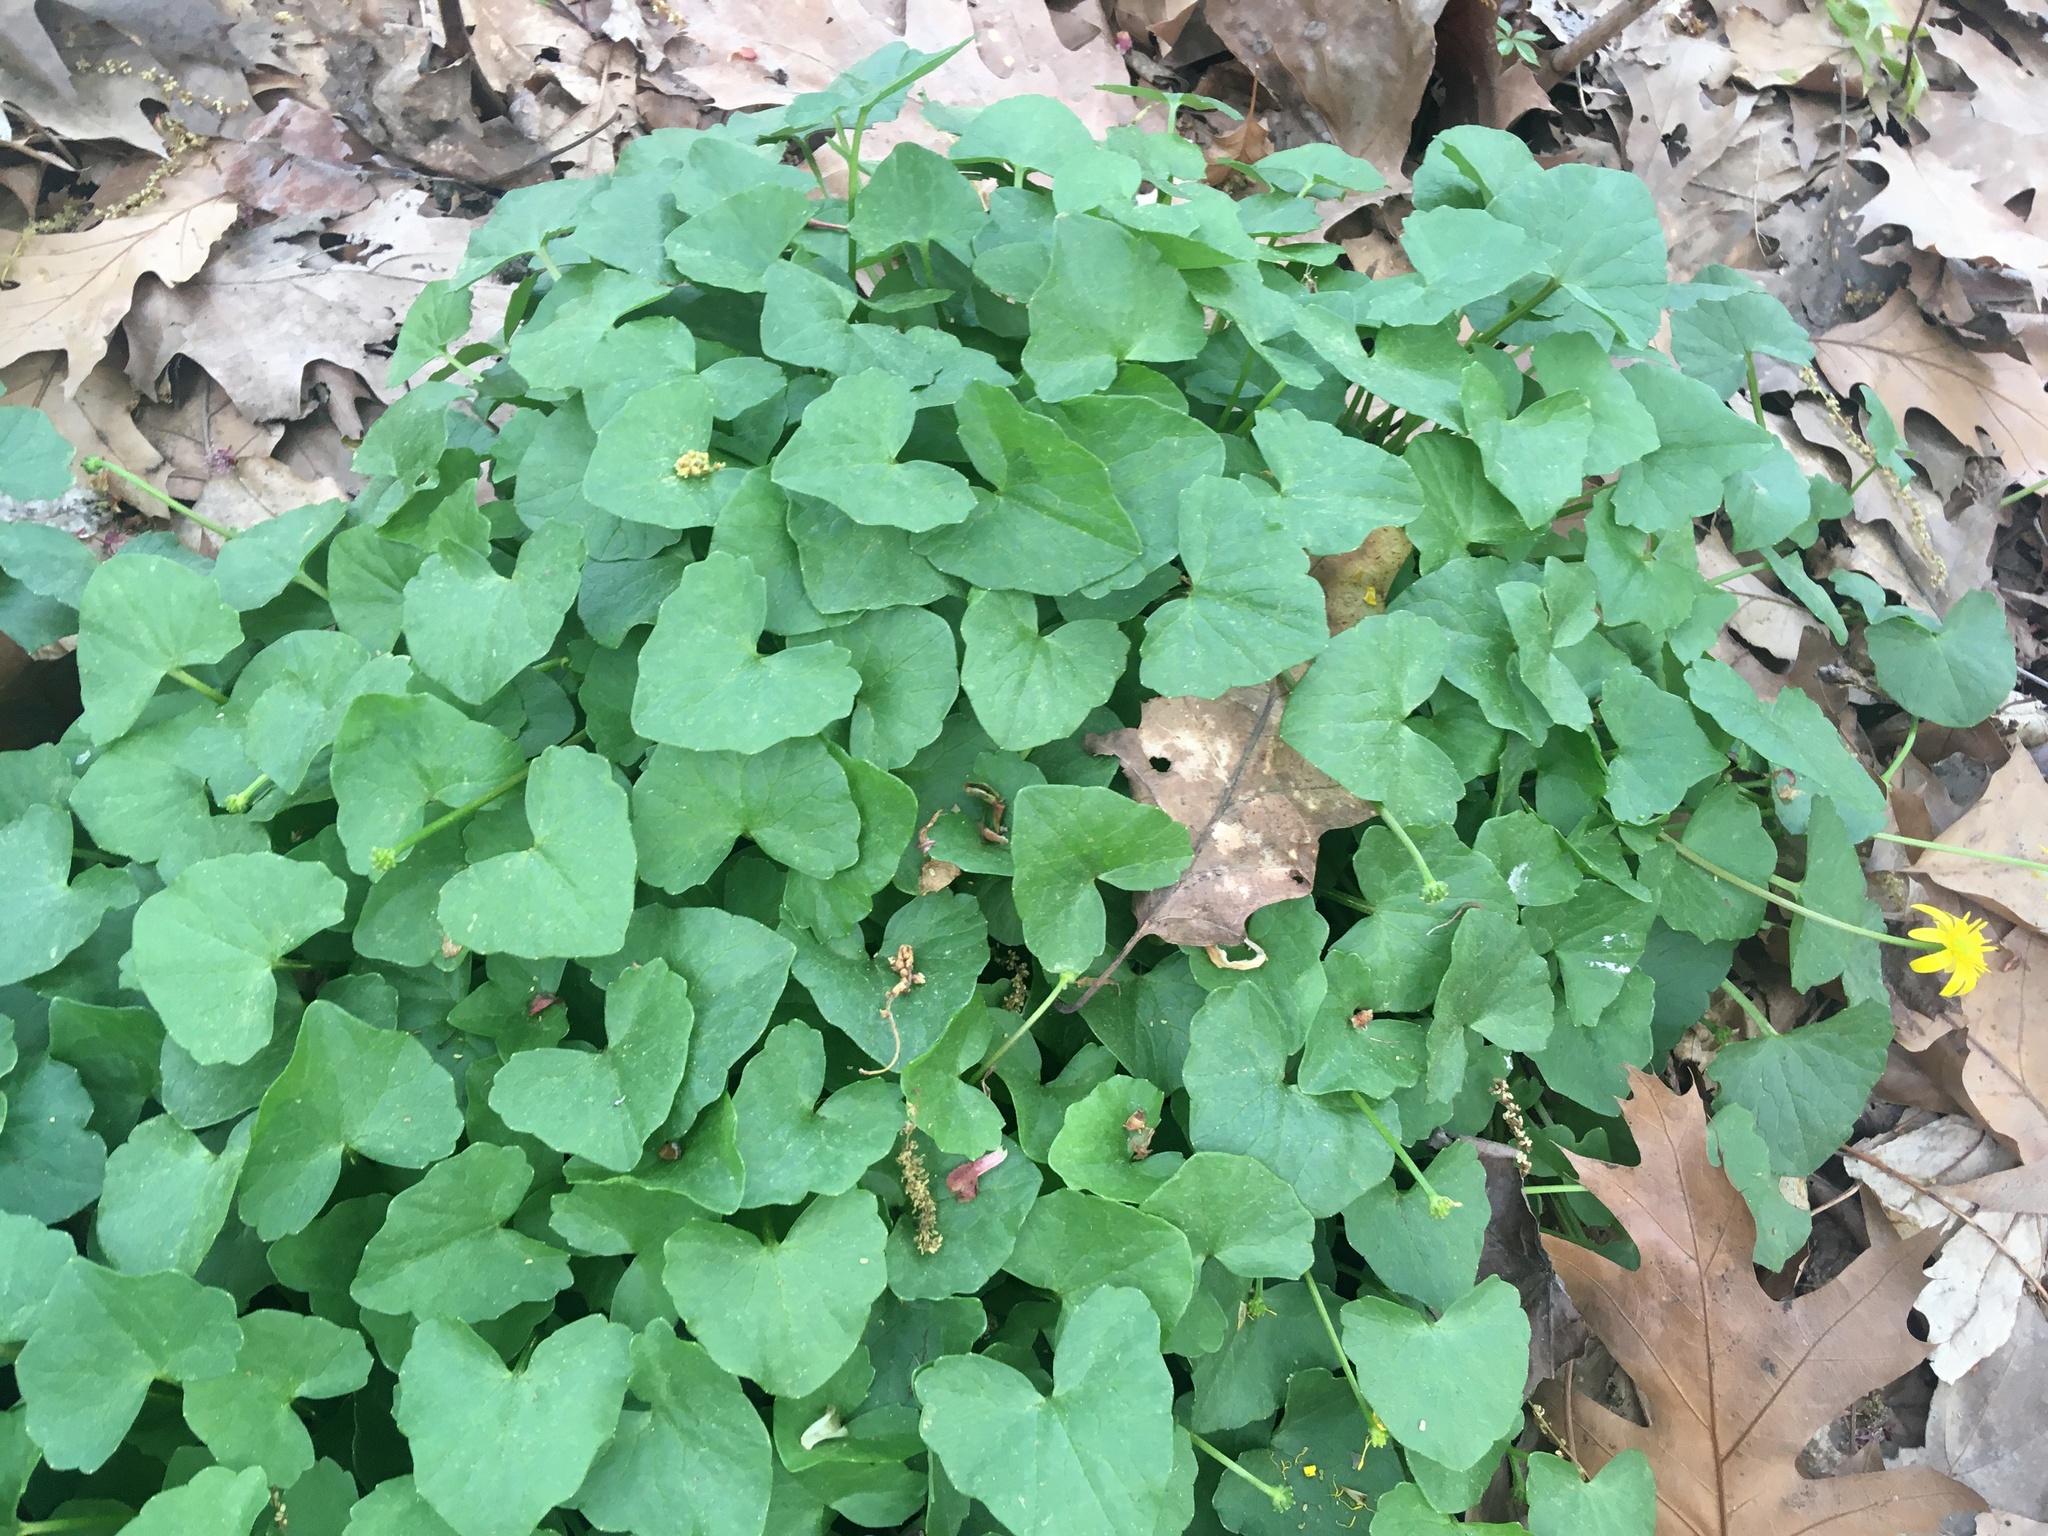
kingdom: Plantae
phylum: Tracheophyta
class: Magnoliopsida
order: Ranunculales
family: Ranunculaceae
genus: Ficaria
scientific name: Ficaria verna
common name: Lesser celandine
